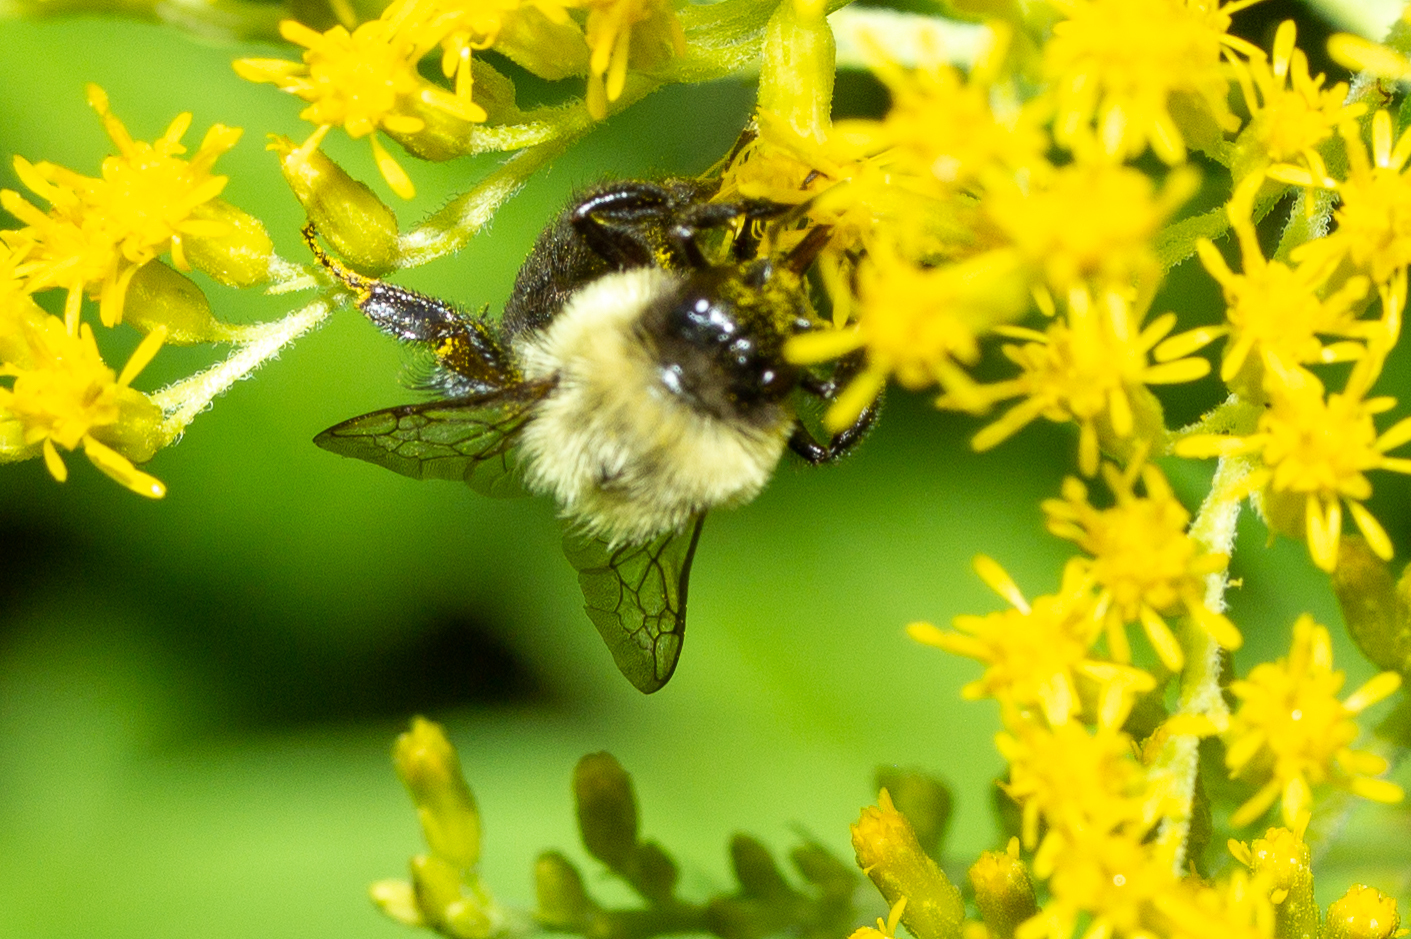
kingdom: Animalia
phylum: Arthropoda
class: Insecta
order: Hymenoptera
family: Apidae
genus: Bombus
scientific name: Bombus impatiens
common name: Common eastern bumble bee
